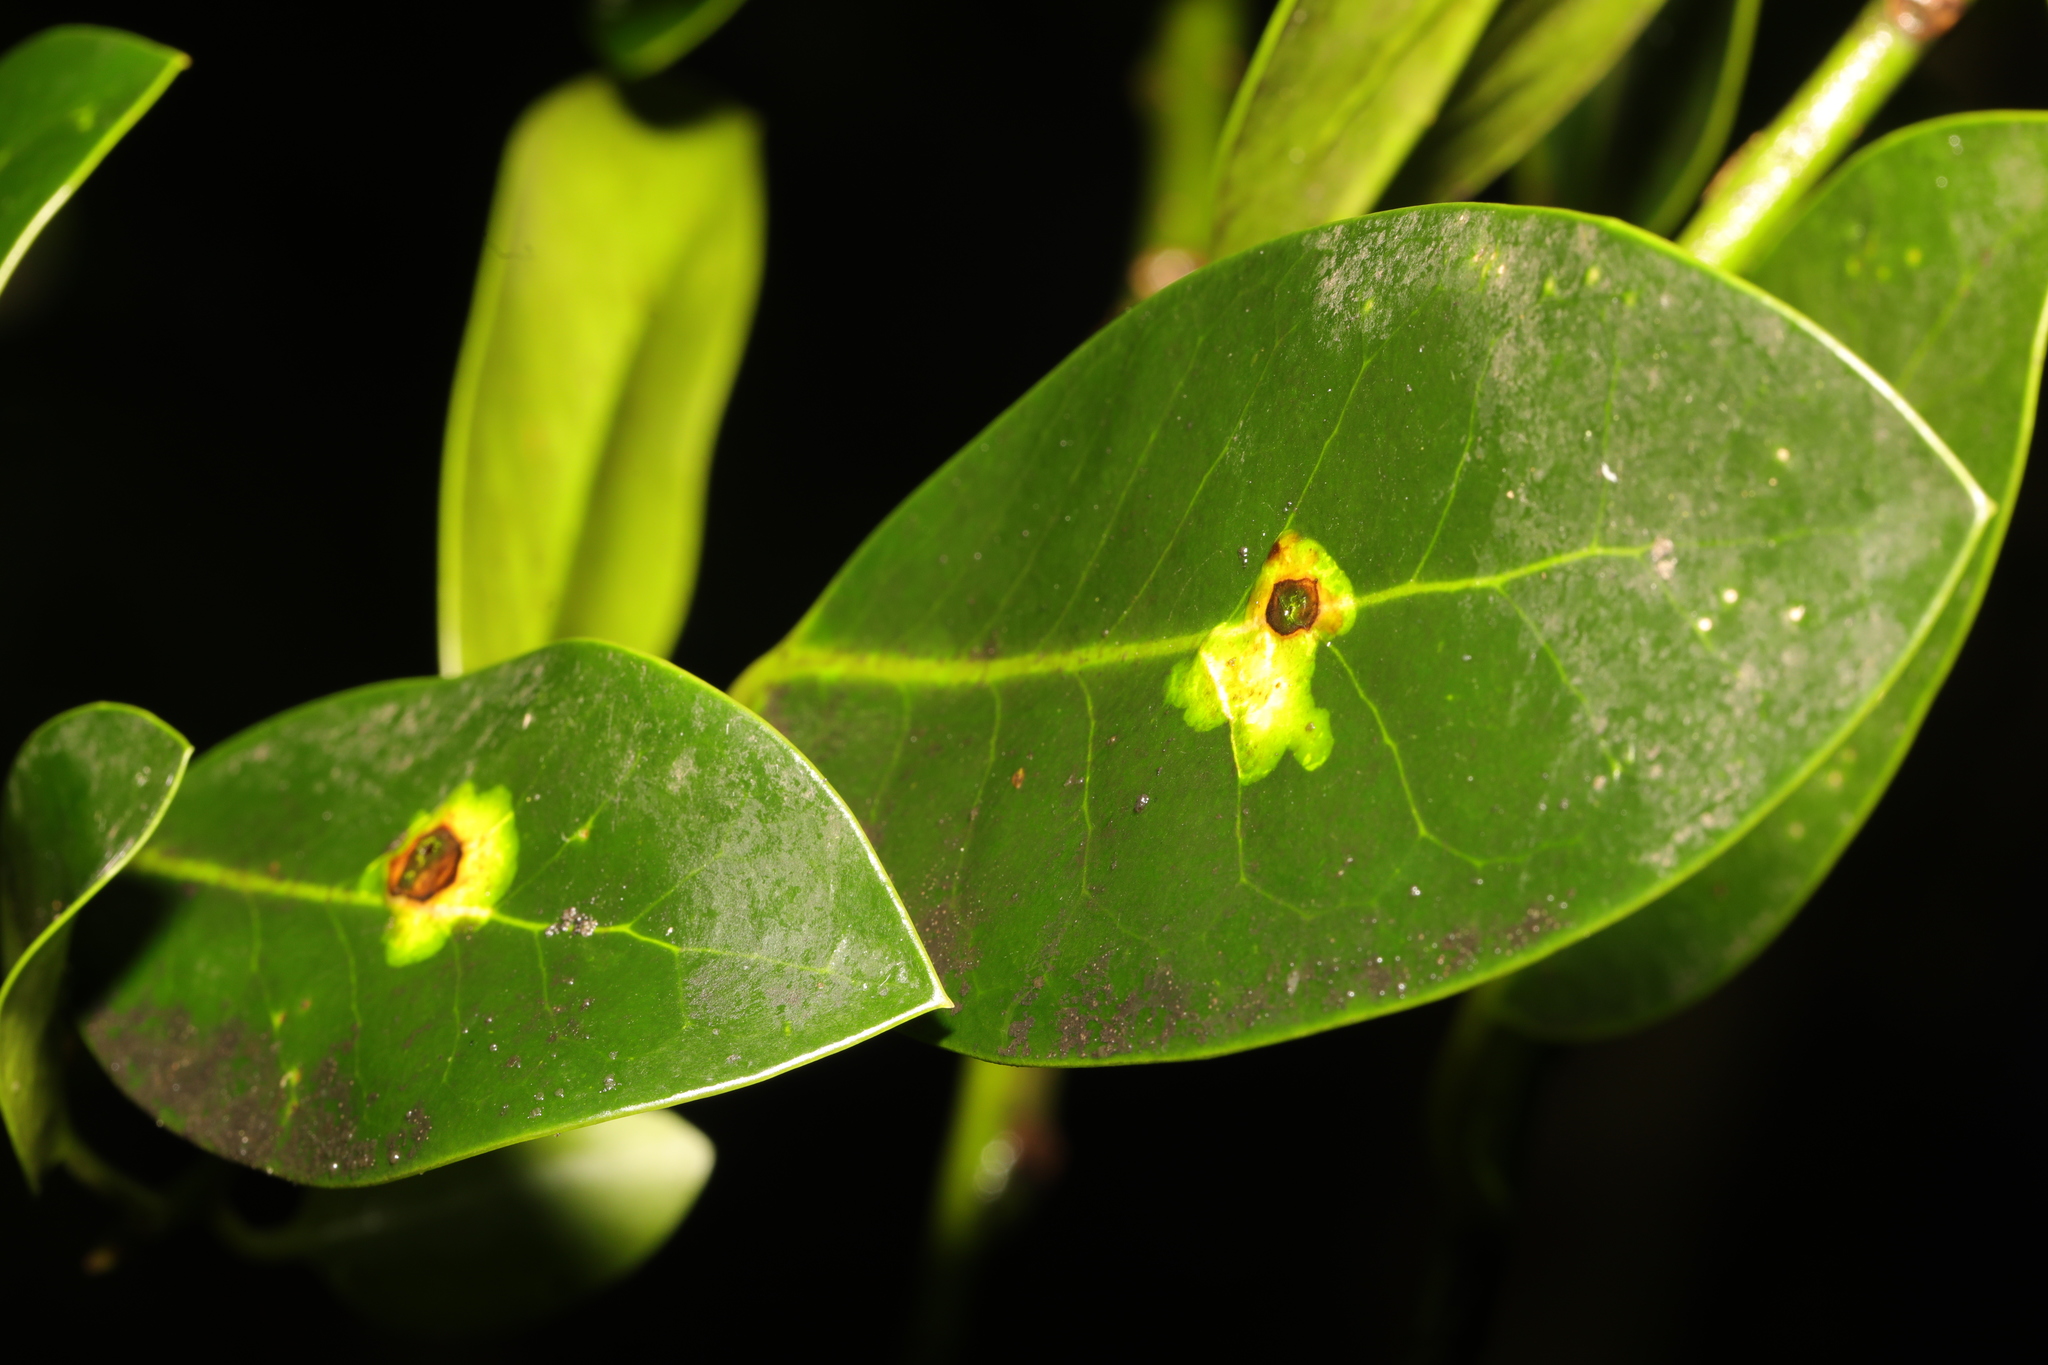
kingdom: Animalia
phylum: Arthropoda
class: Insecta
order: Diptera
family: Agromyzidae
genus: Phytomyza
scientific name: Phytomyza ilicis
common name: Holly leafminer
